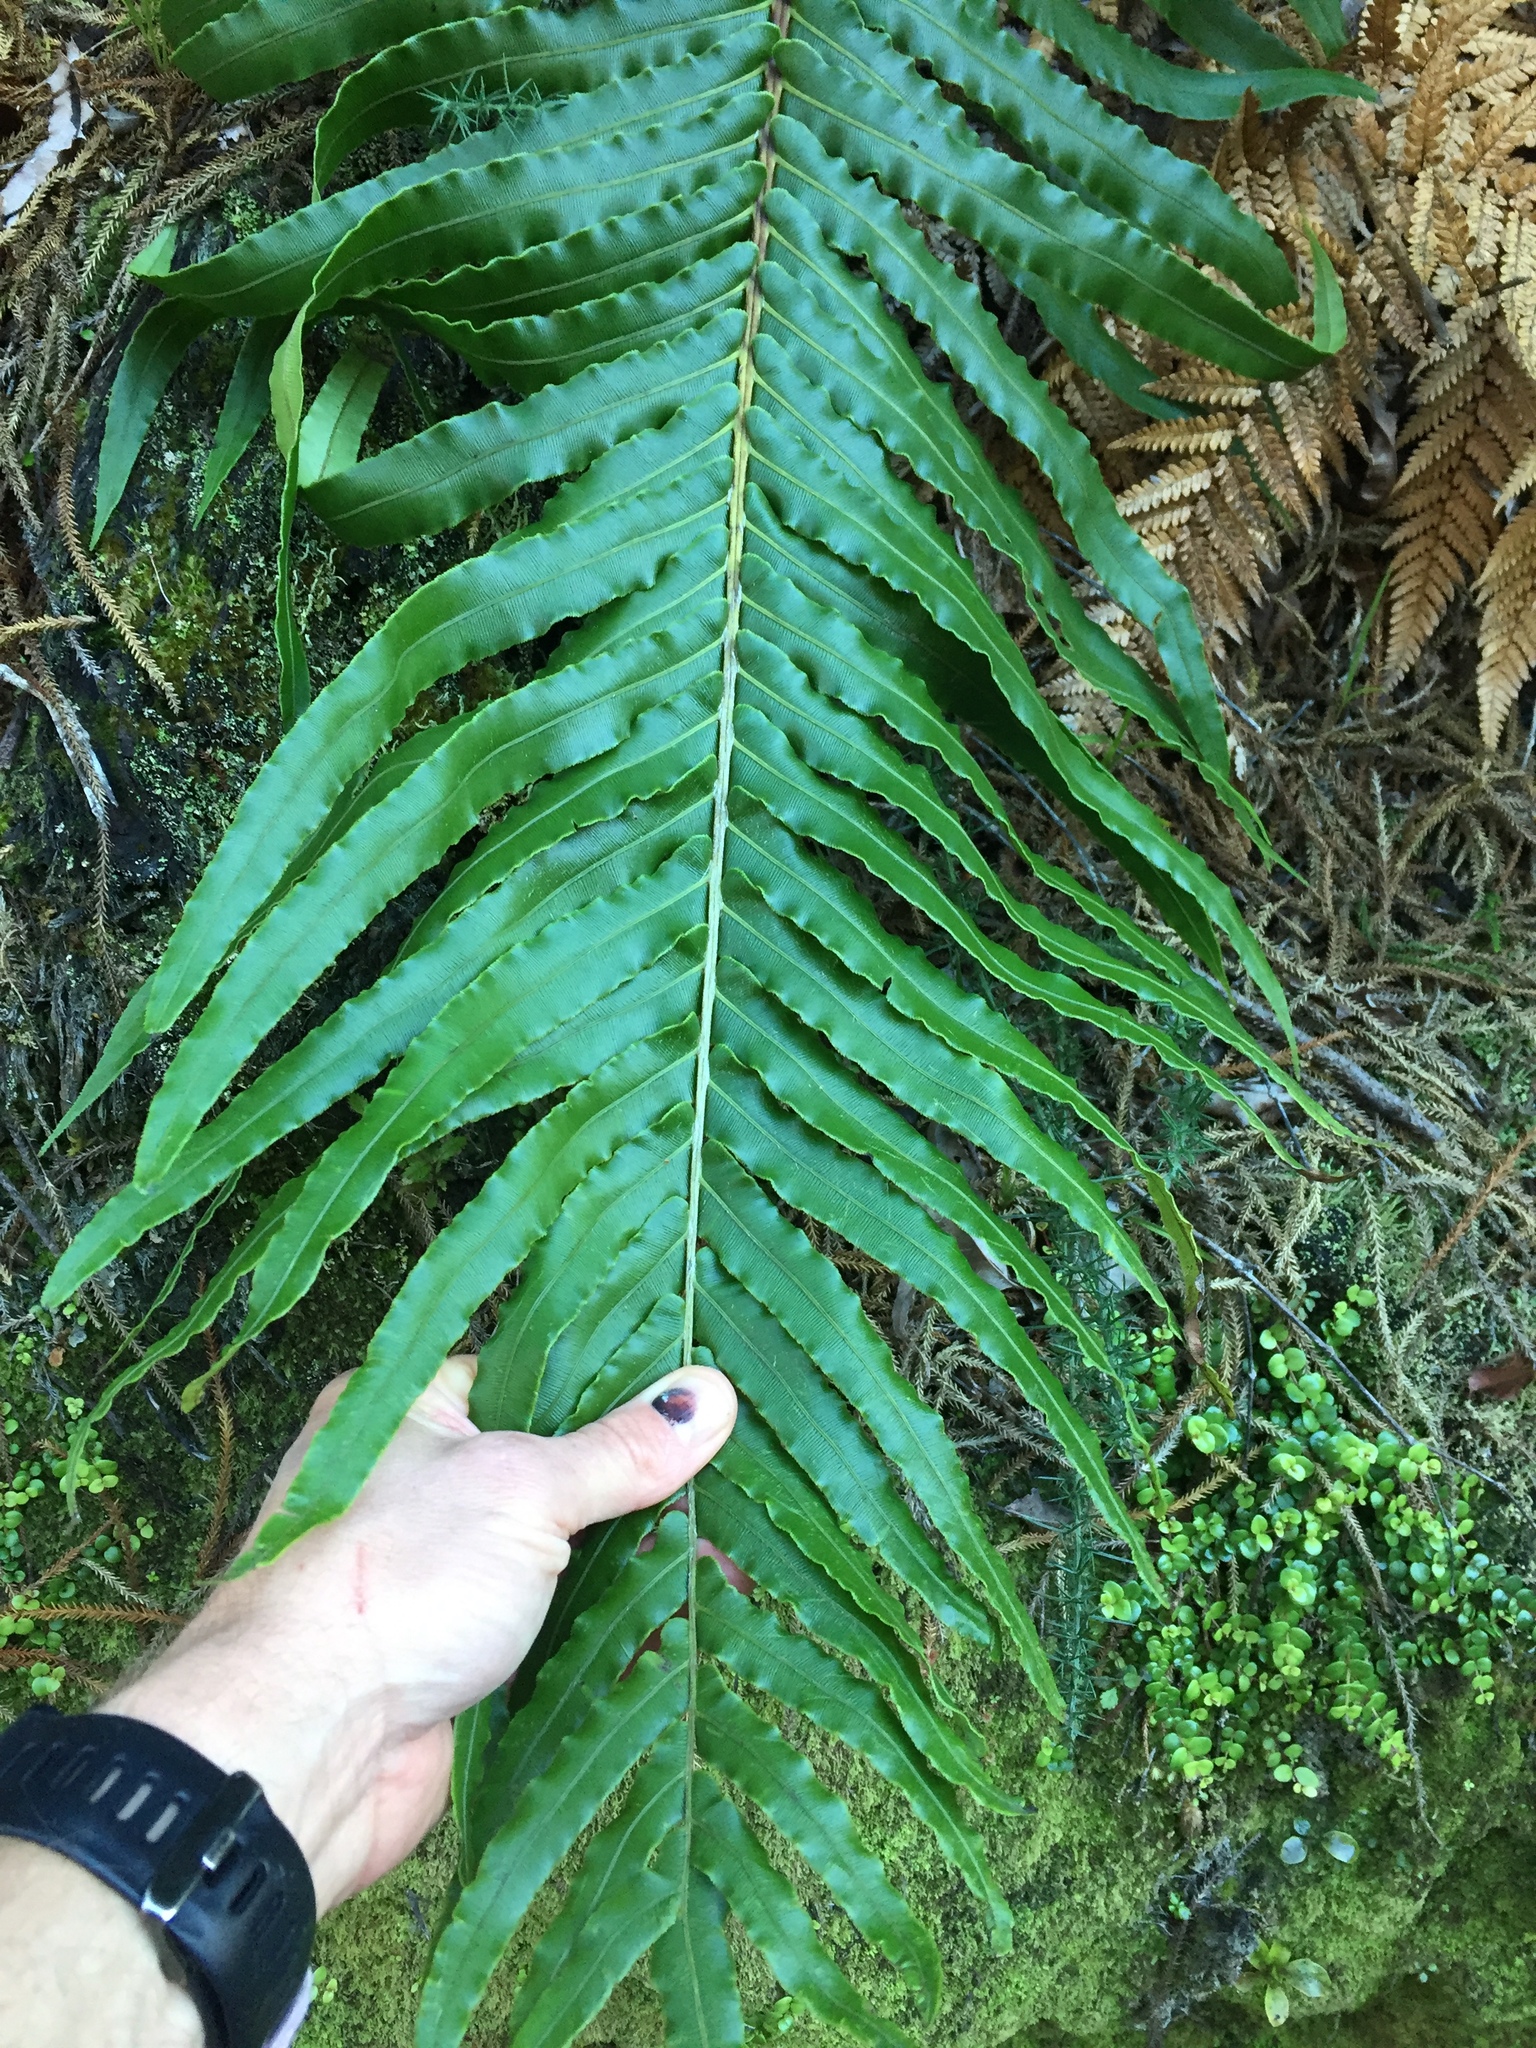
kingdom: Plantae
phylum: Tracheophyta
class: Polypodiopsida
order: Polypodiales
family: Blechnaceae
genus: Parablechnum
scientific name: Parablechnum novae-zelandiae
